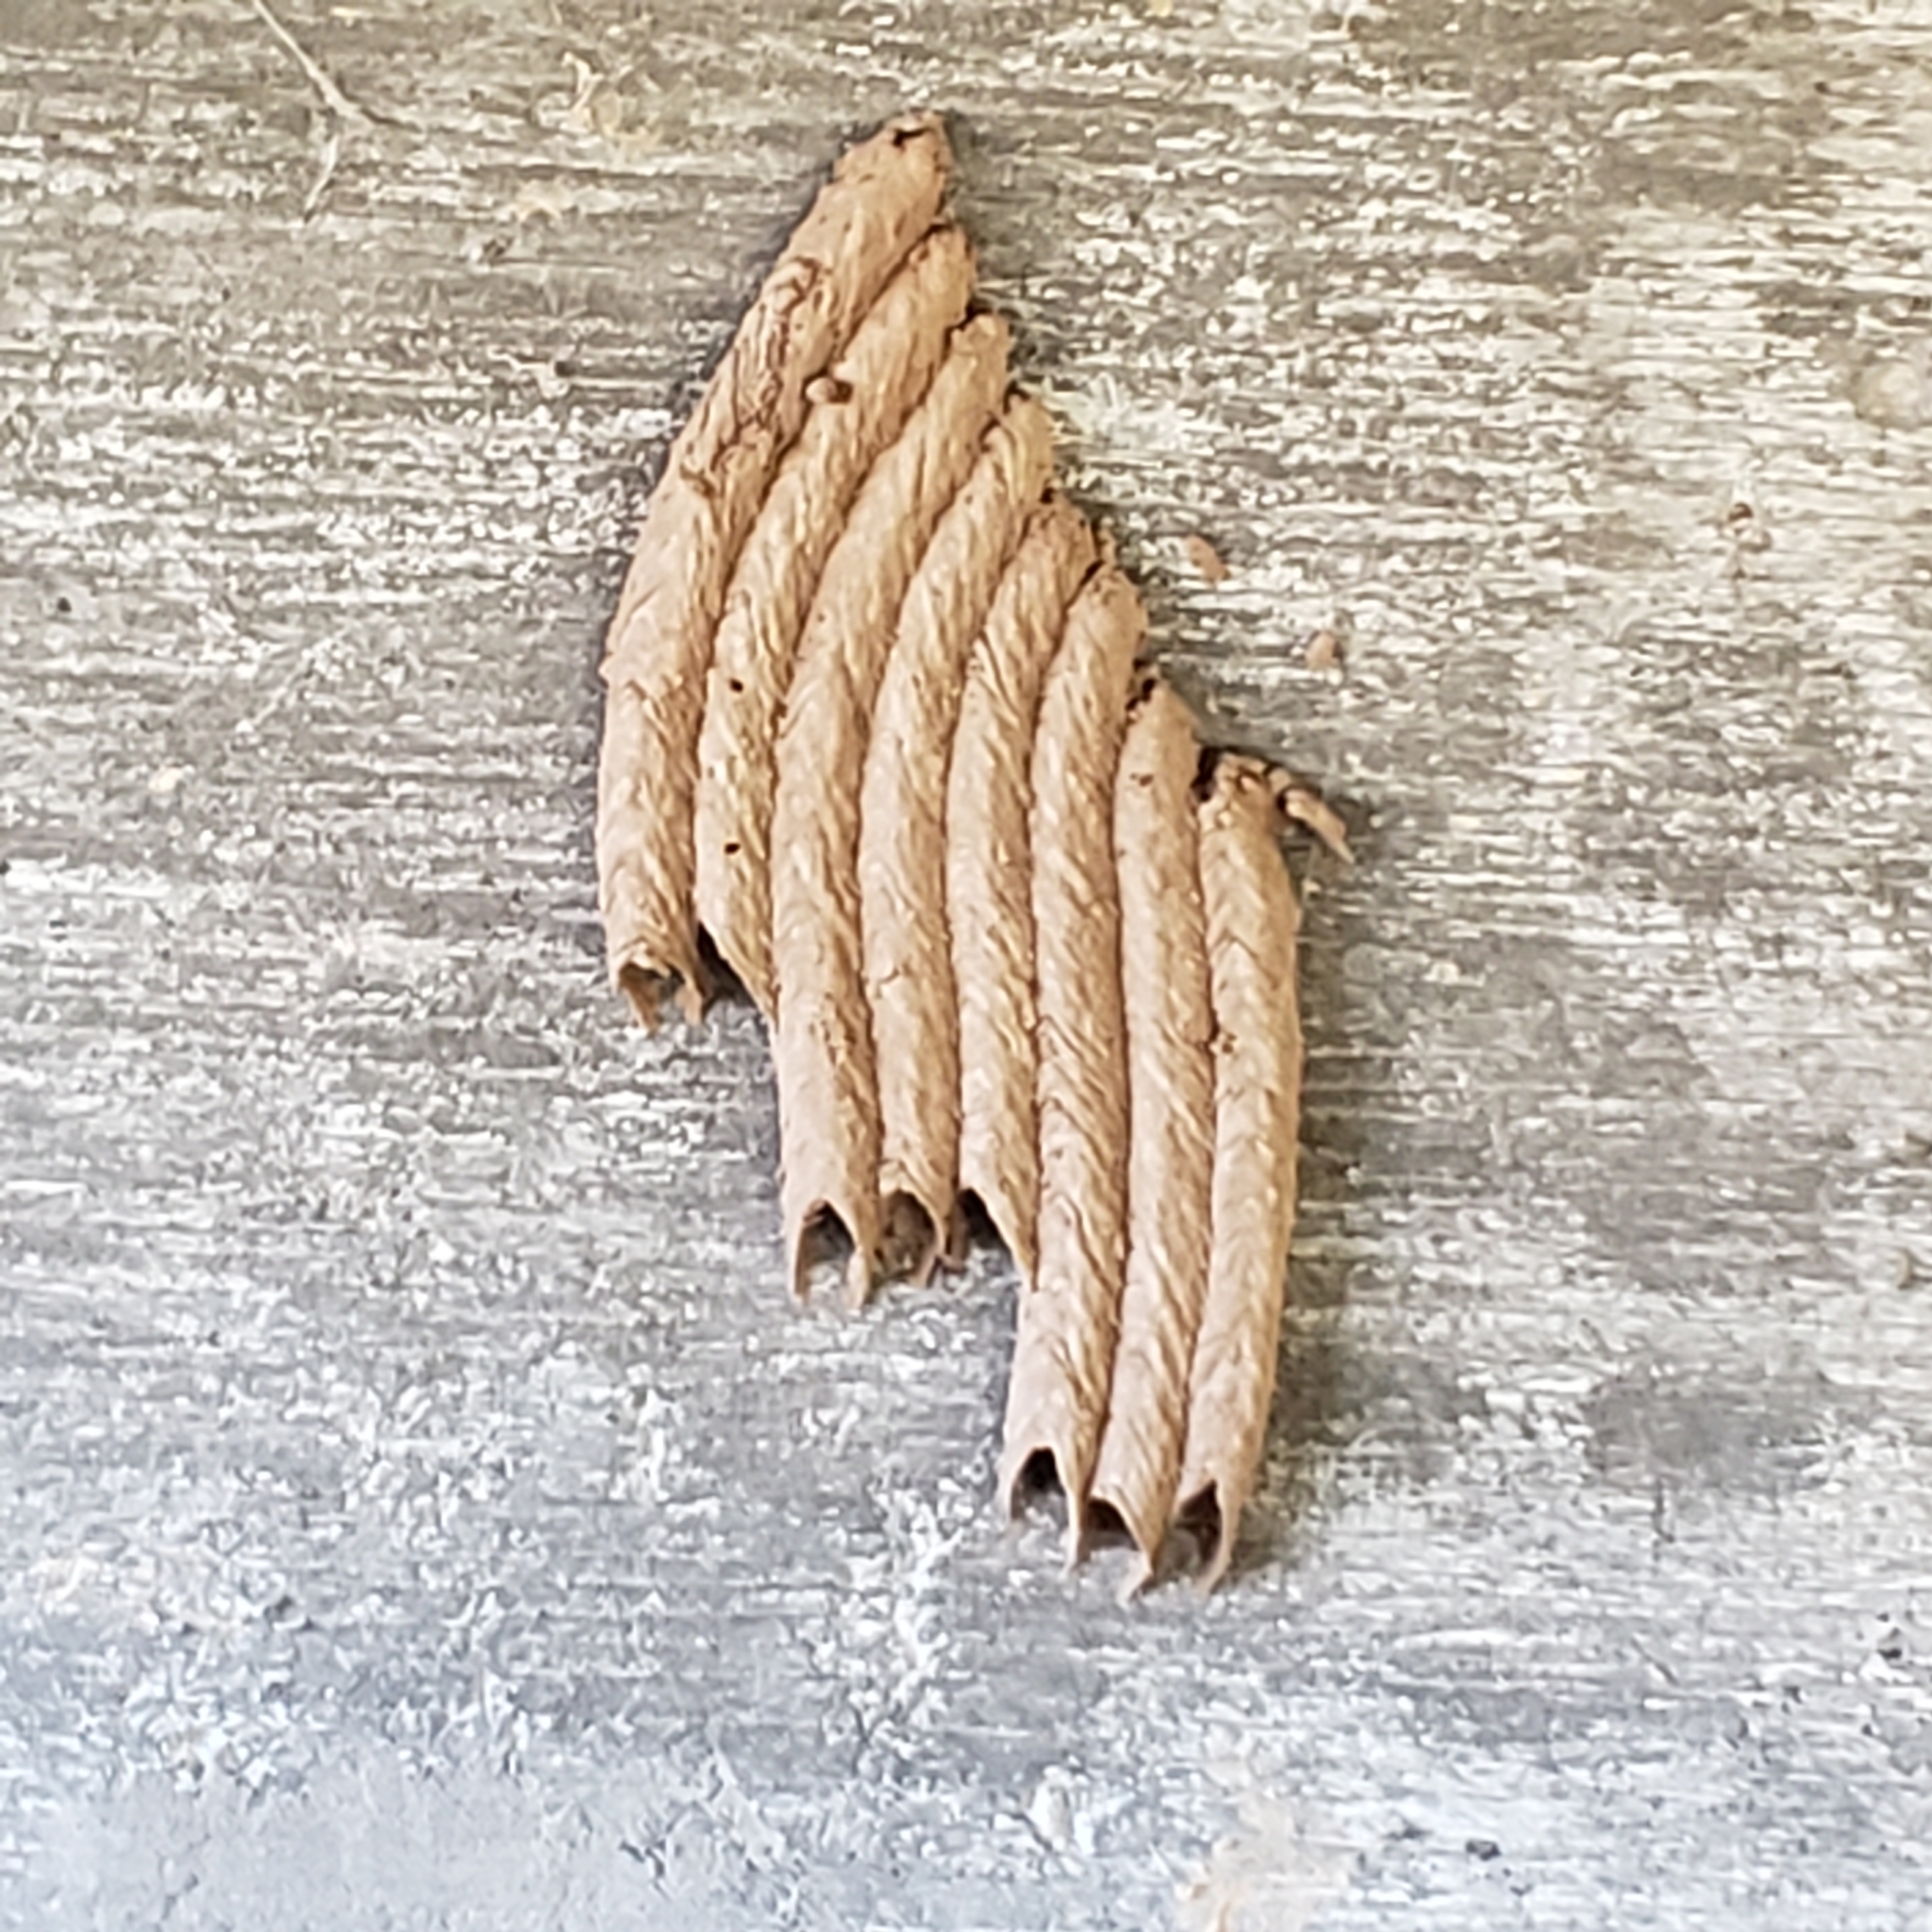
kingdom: Animalia
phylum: Arthropoda
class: Insecta
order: Hymenoptera
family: Crabronidae
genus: Trypoxylon
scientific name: Trypoxylon politum
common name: Organ-pipe mud-dauber wasp
